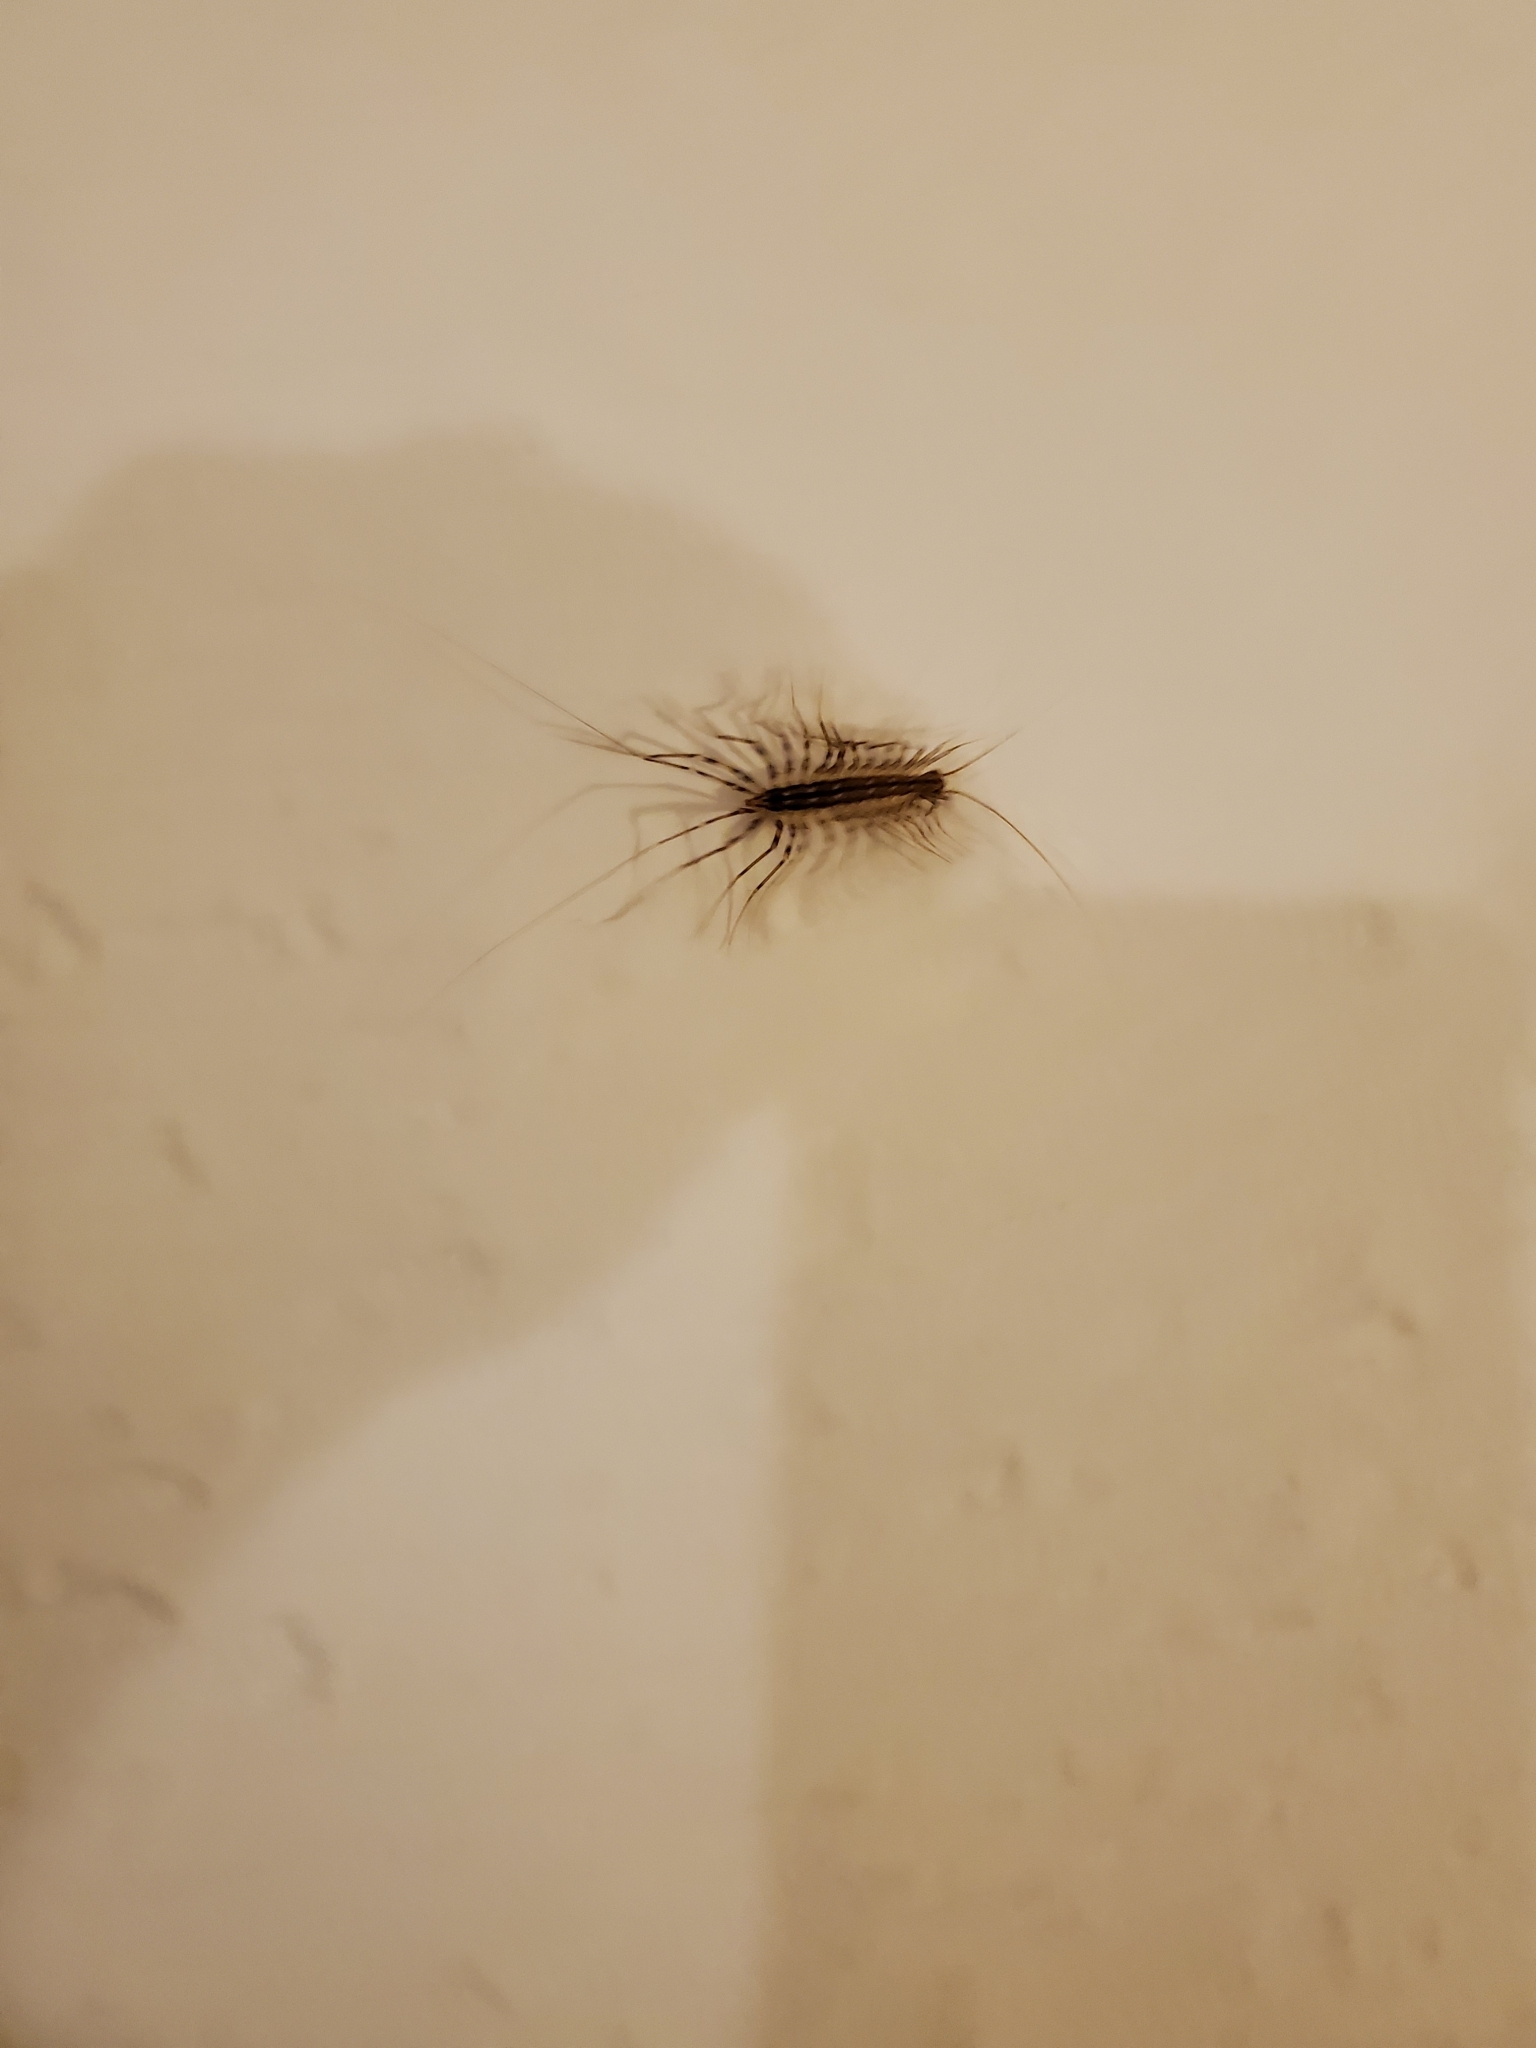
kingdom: Animalia
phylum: Arthropoda
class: Chilopoda
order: Scutigeromorpha
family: Scutigeridae
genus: Scutigera
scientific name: Scutigera coleoptrata
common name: House centipede
